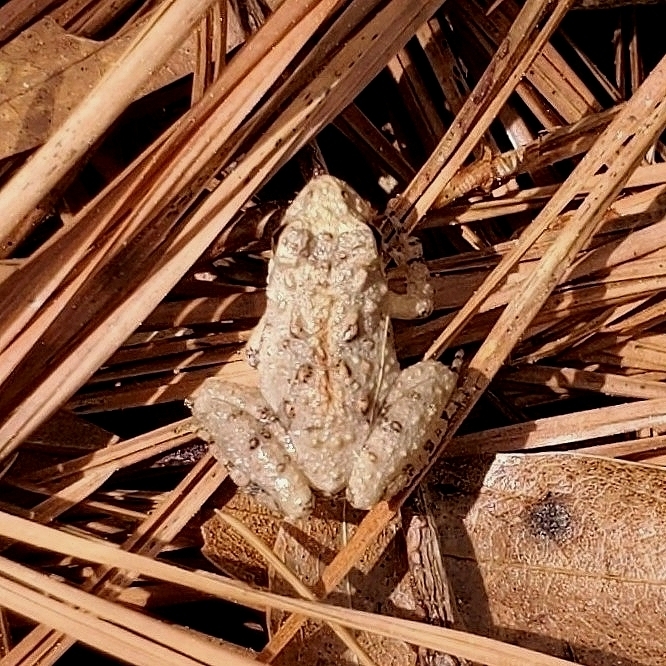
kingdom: Animalia
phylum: Chordata
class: Amphibia
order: Anura
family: Hylidae
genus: Acris
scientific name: Acris crepitans
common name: Northern cricket frog
